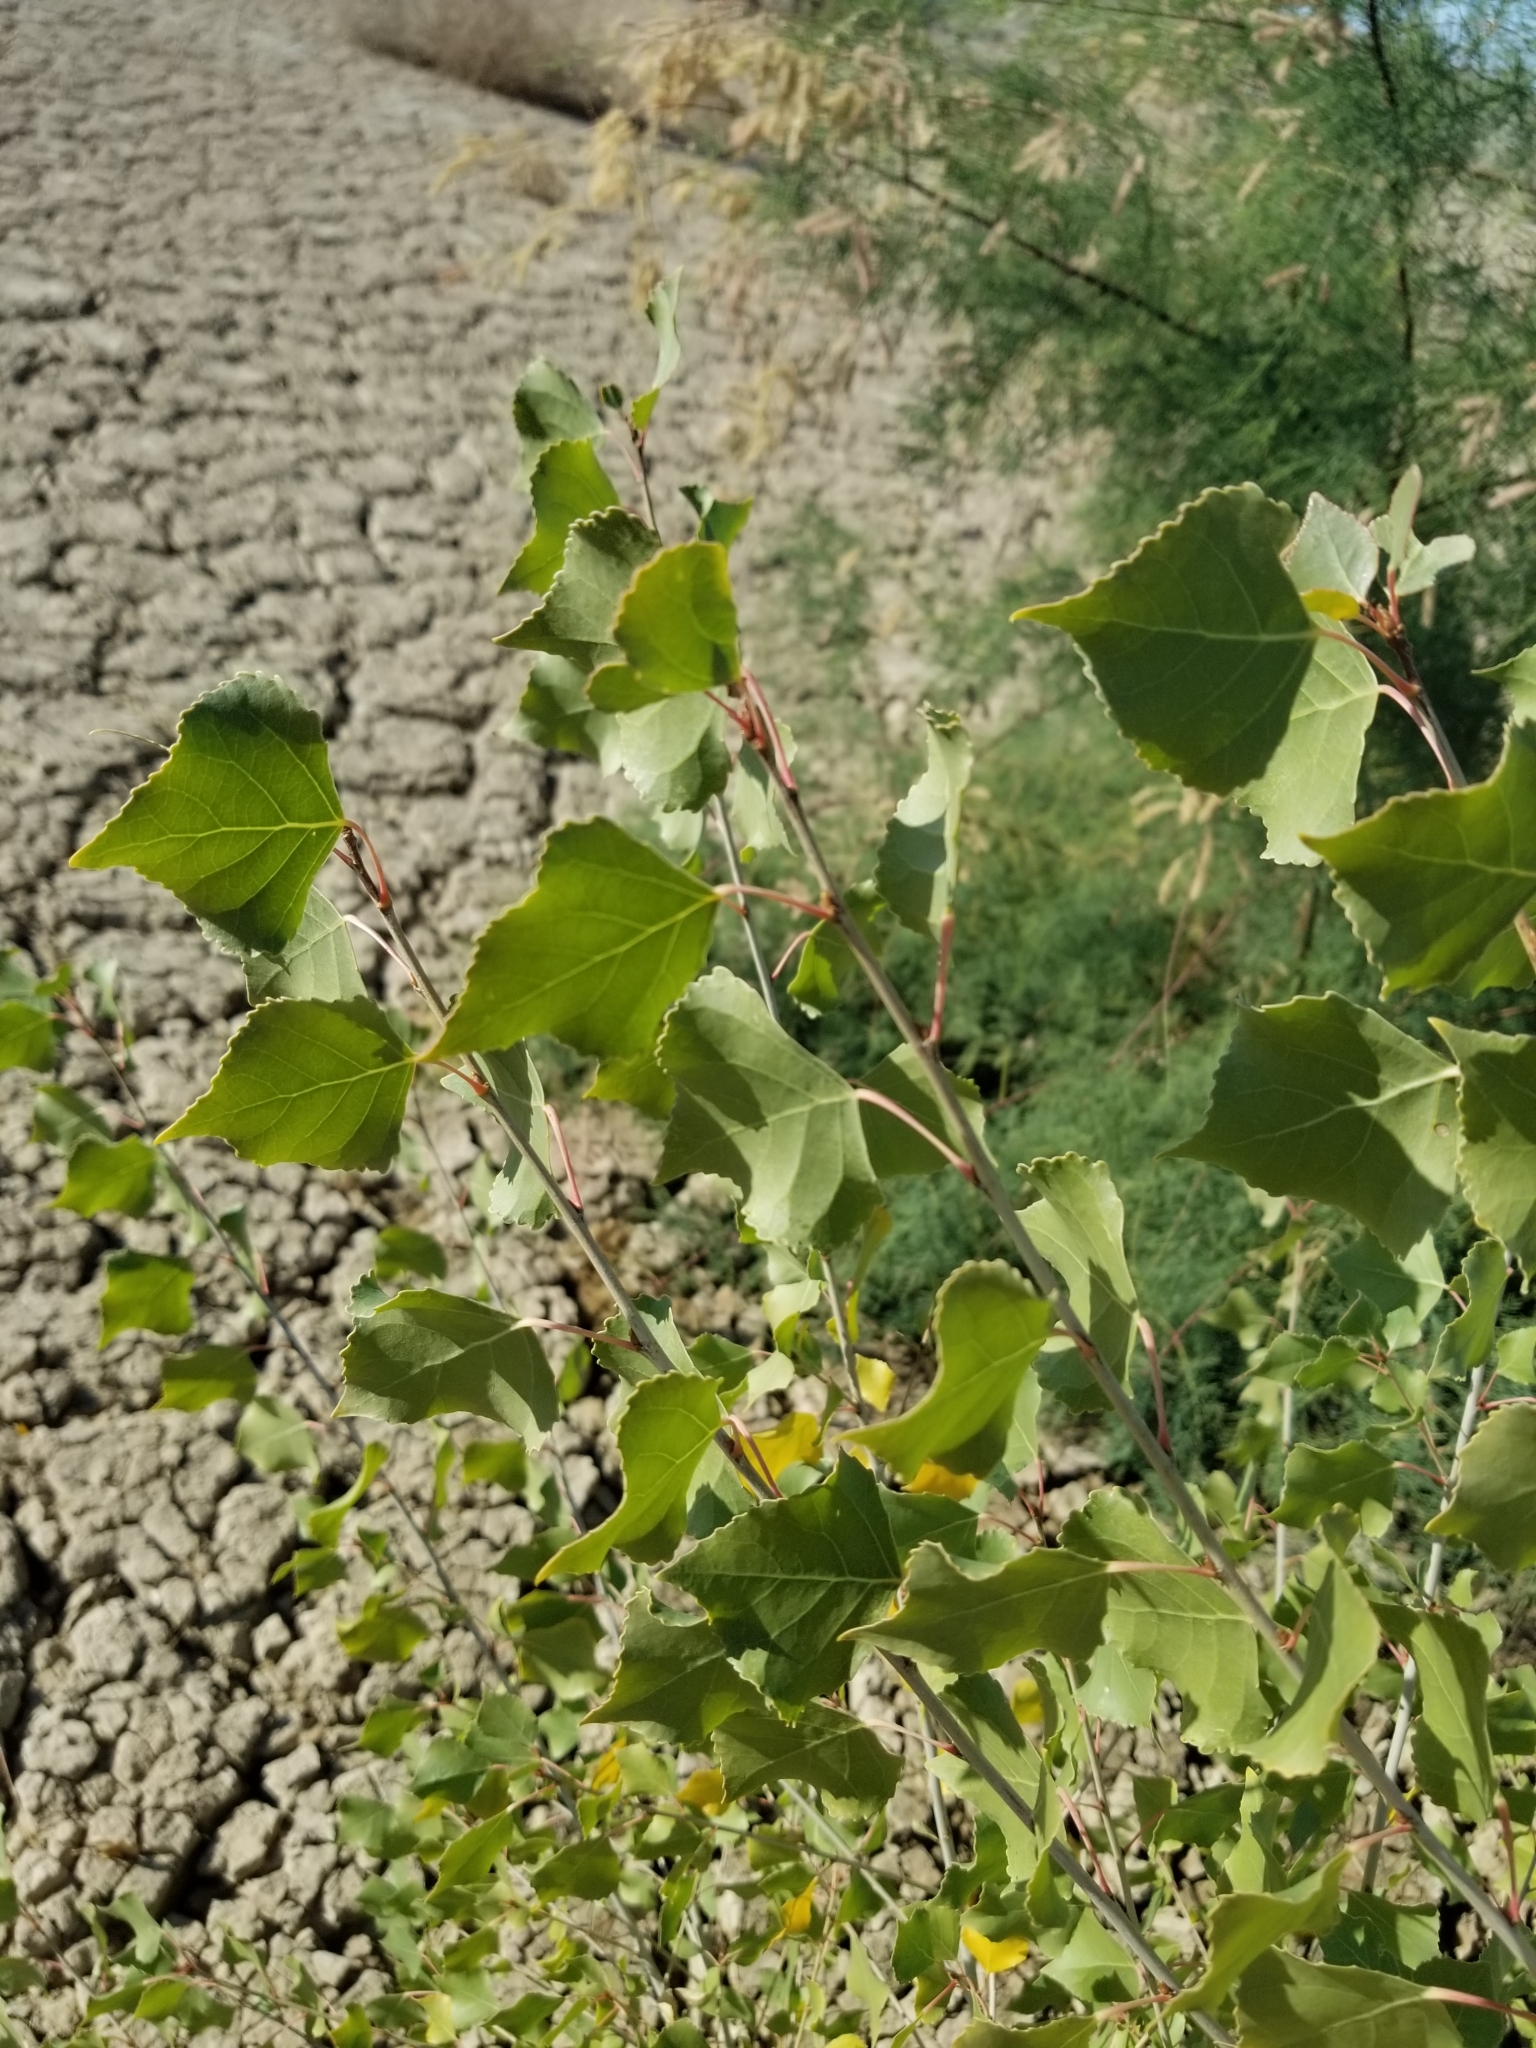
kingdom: Plantae
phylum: Tracheophyta
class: Magnoliopsida
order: Malpighiales
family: Salicaceae
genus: Populus
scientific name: Populus fremontii
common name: Fremont's cottonwood
